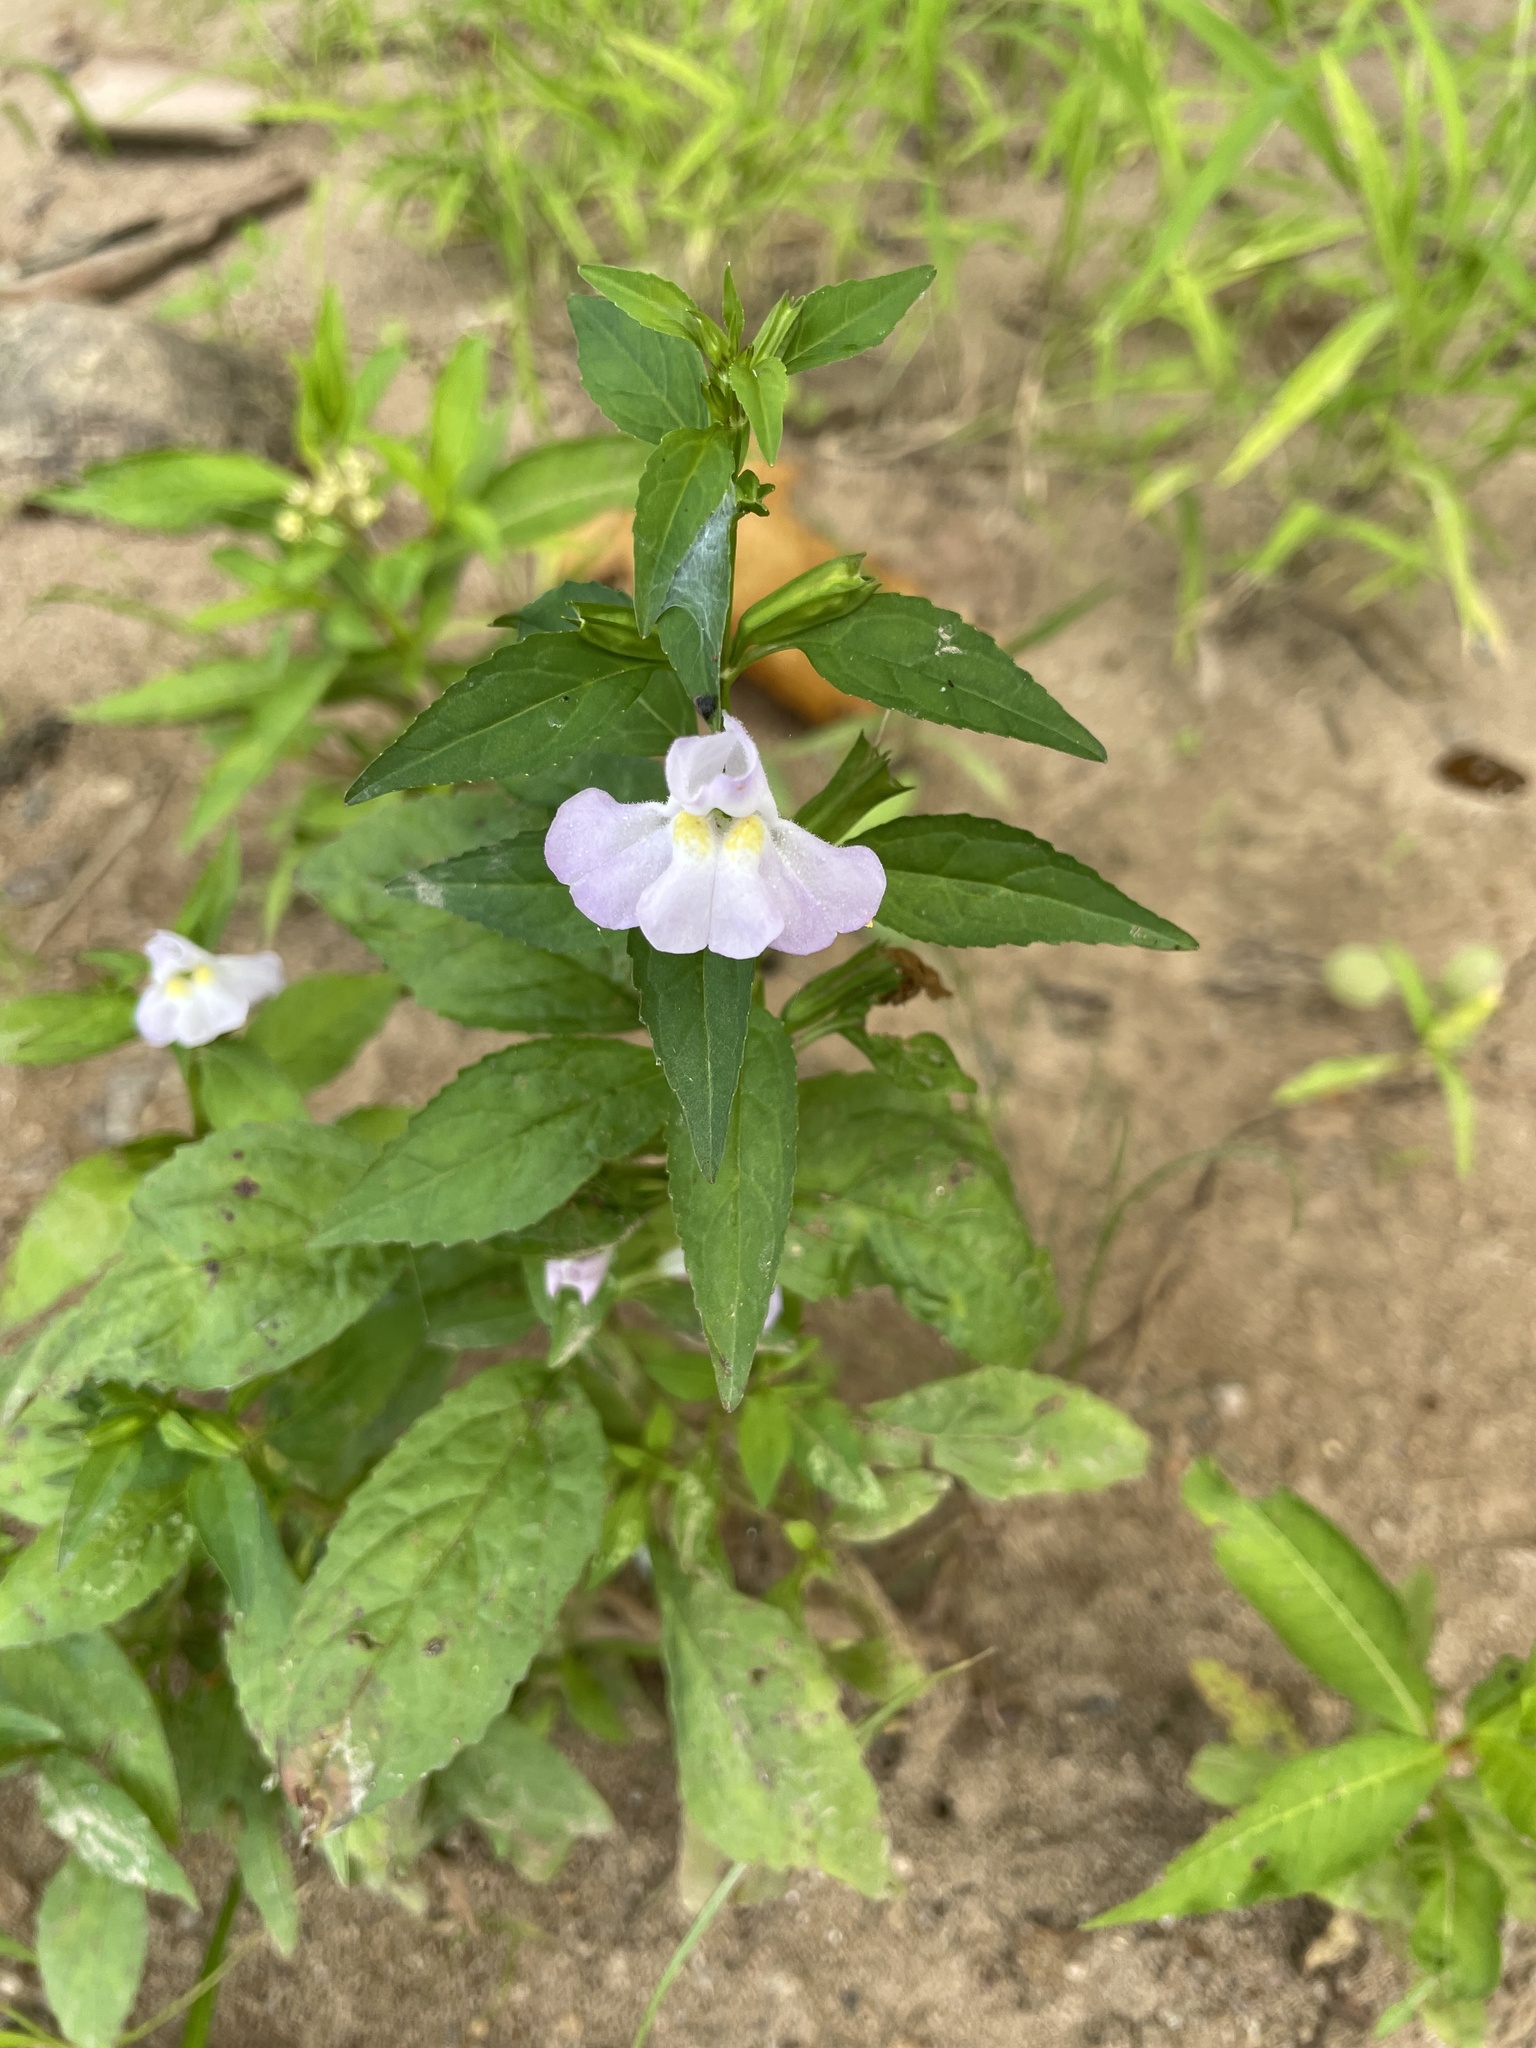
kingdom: Plantae
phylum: Tracheophyta
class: Magnoliopsida
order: Lamiales
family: Phrymaceae
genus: Mimulus
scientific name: Mimulus alatus
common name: Sharp-wing monkey-flower
